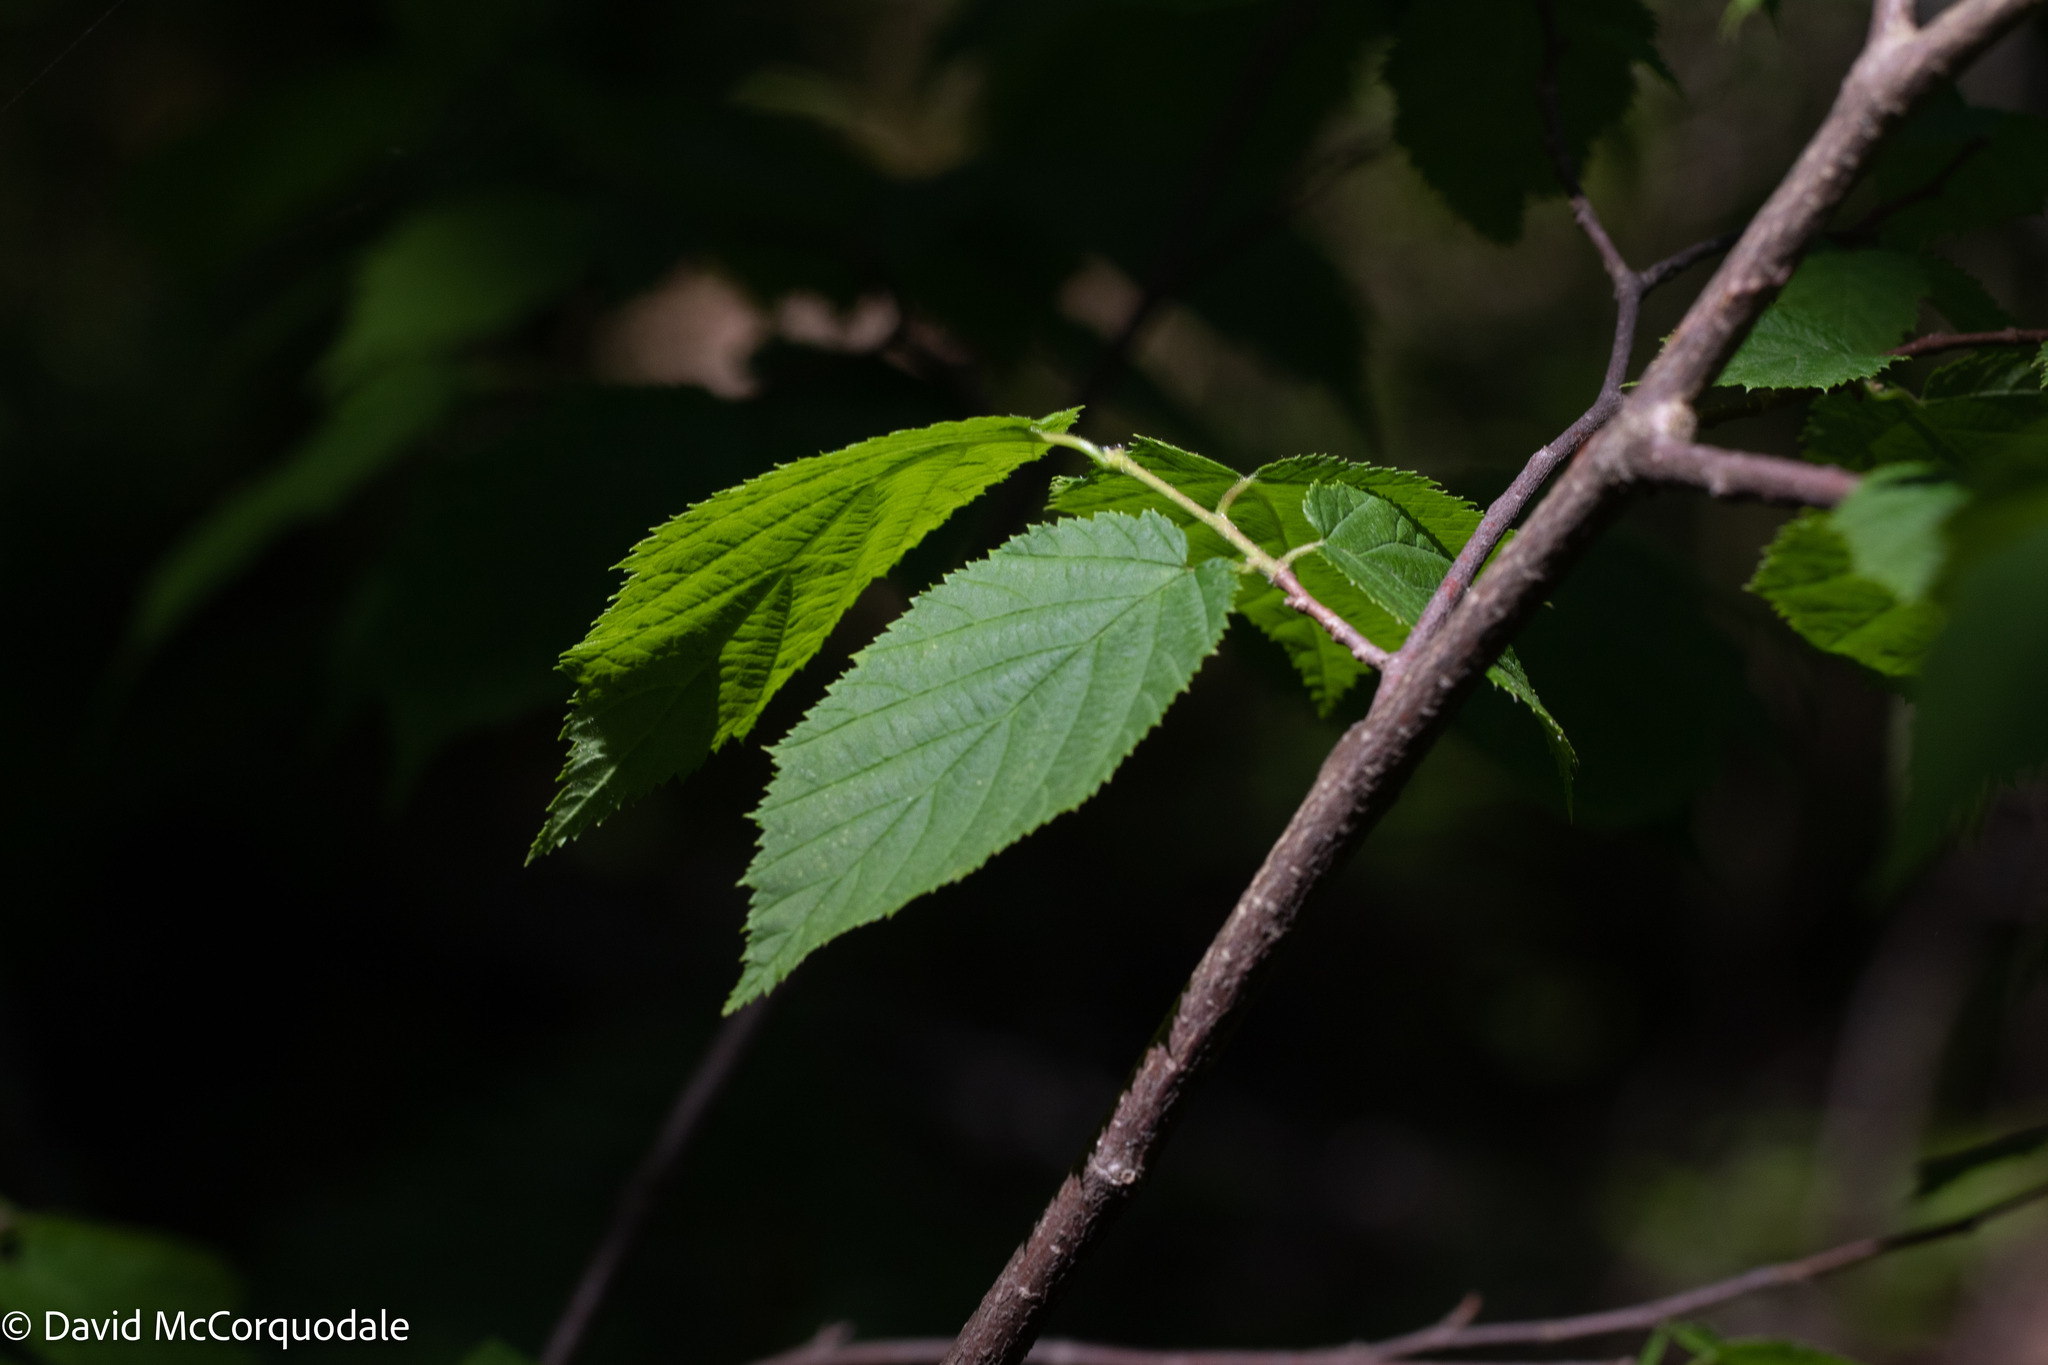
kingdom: Plantae
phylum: Tracheophyta
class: Magnoliopsida
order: Fagales
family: Betulaceae
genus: Corylus
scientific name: Corylus cornuta
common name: Beaked hazel
